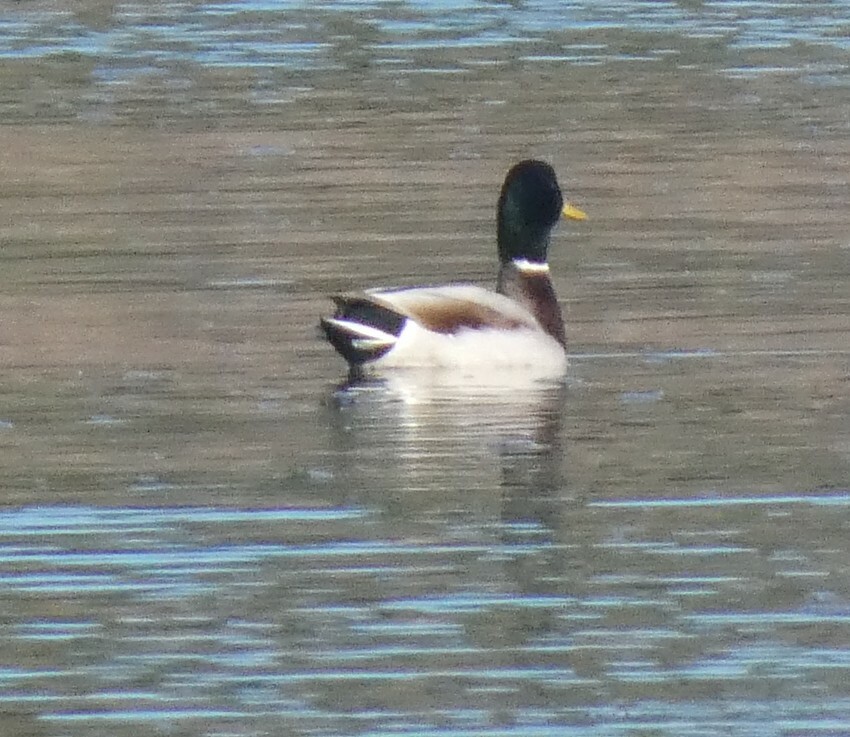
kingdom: Animalia
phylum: Chordata
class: Aves
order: Anseriformes
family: Anatidae
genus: Anas
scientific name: Anas platyrhynchos
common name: Mallard
